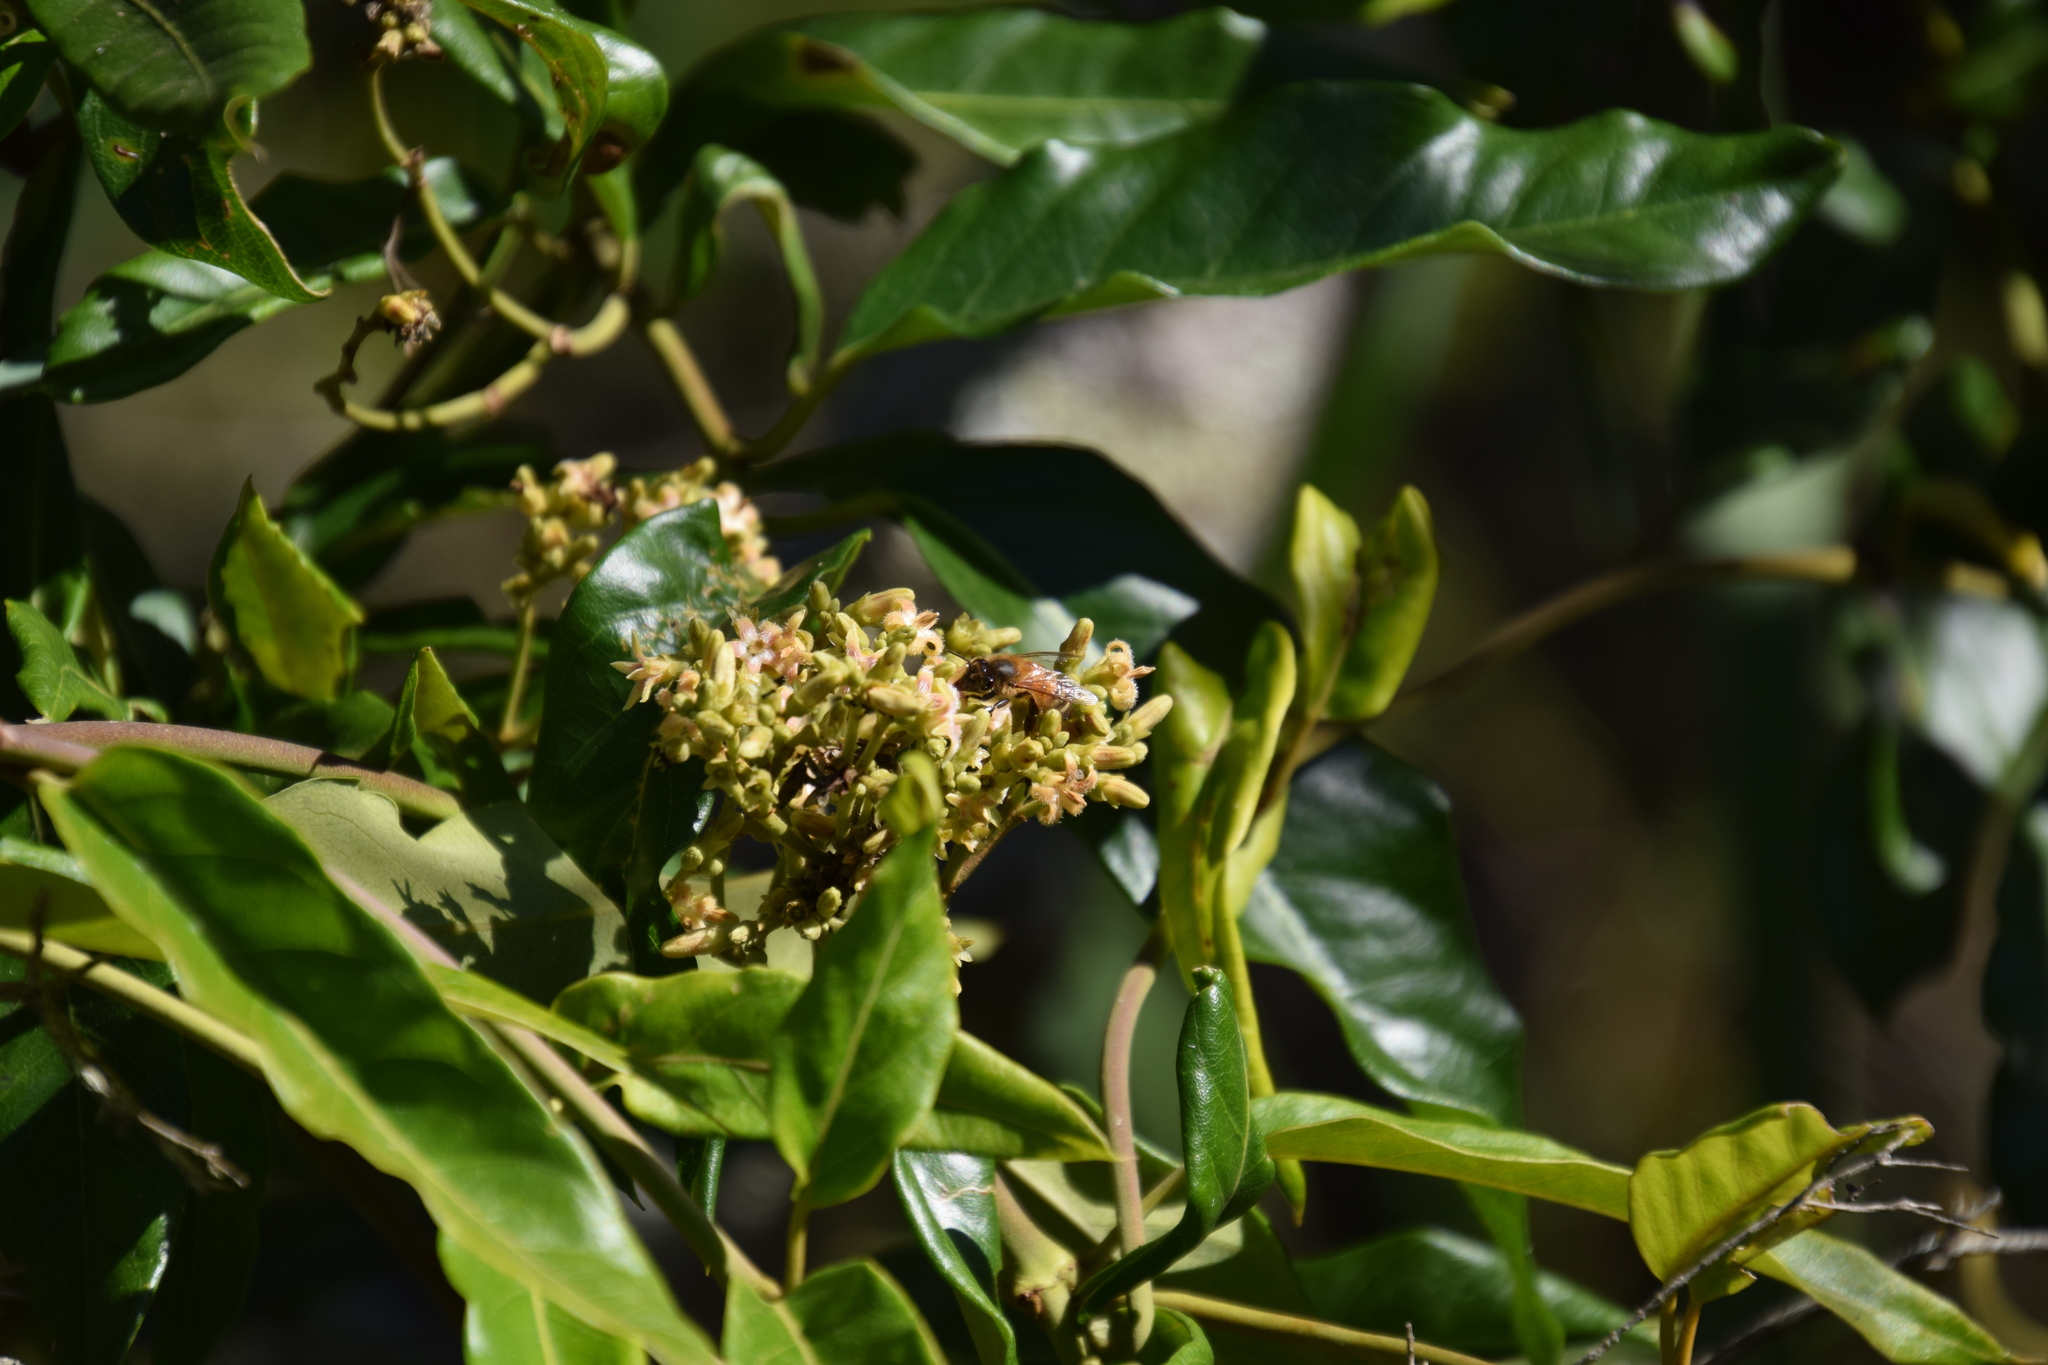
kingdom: Animalia
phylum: Arthropoda
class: Insecta
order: Hymenoptera
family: Apidae
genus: Apis
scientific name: Apis mellifera
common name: Honey bee
